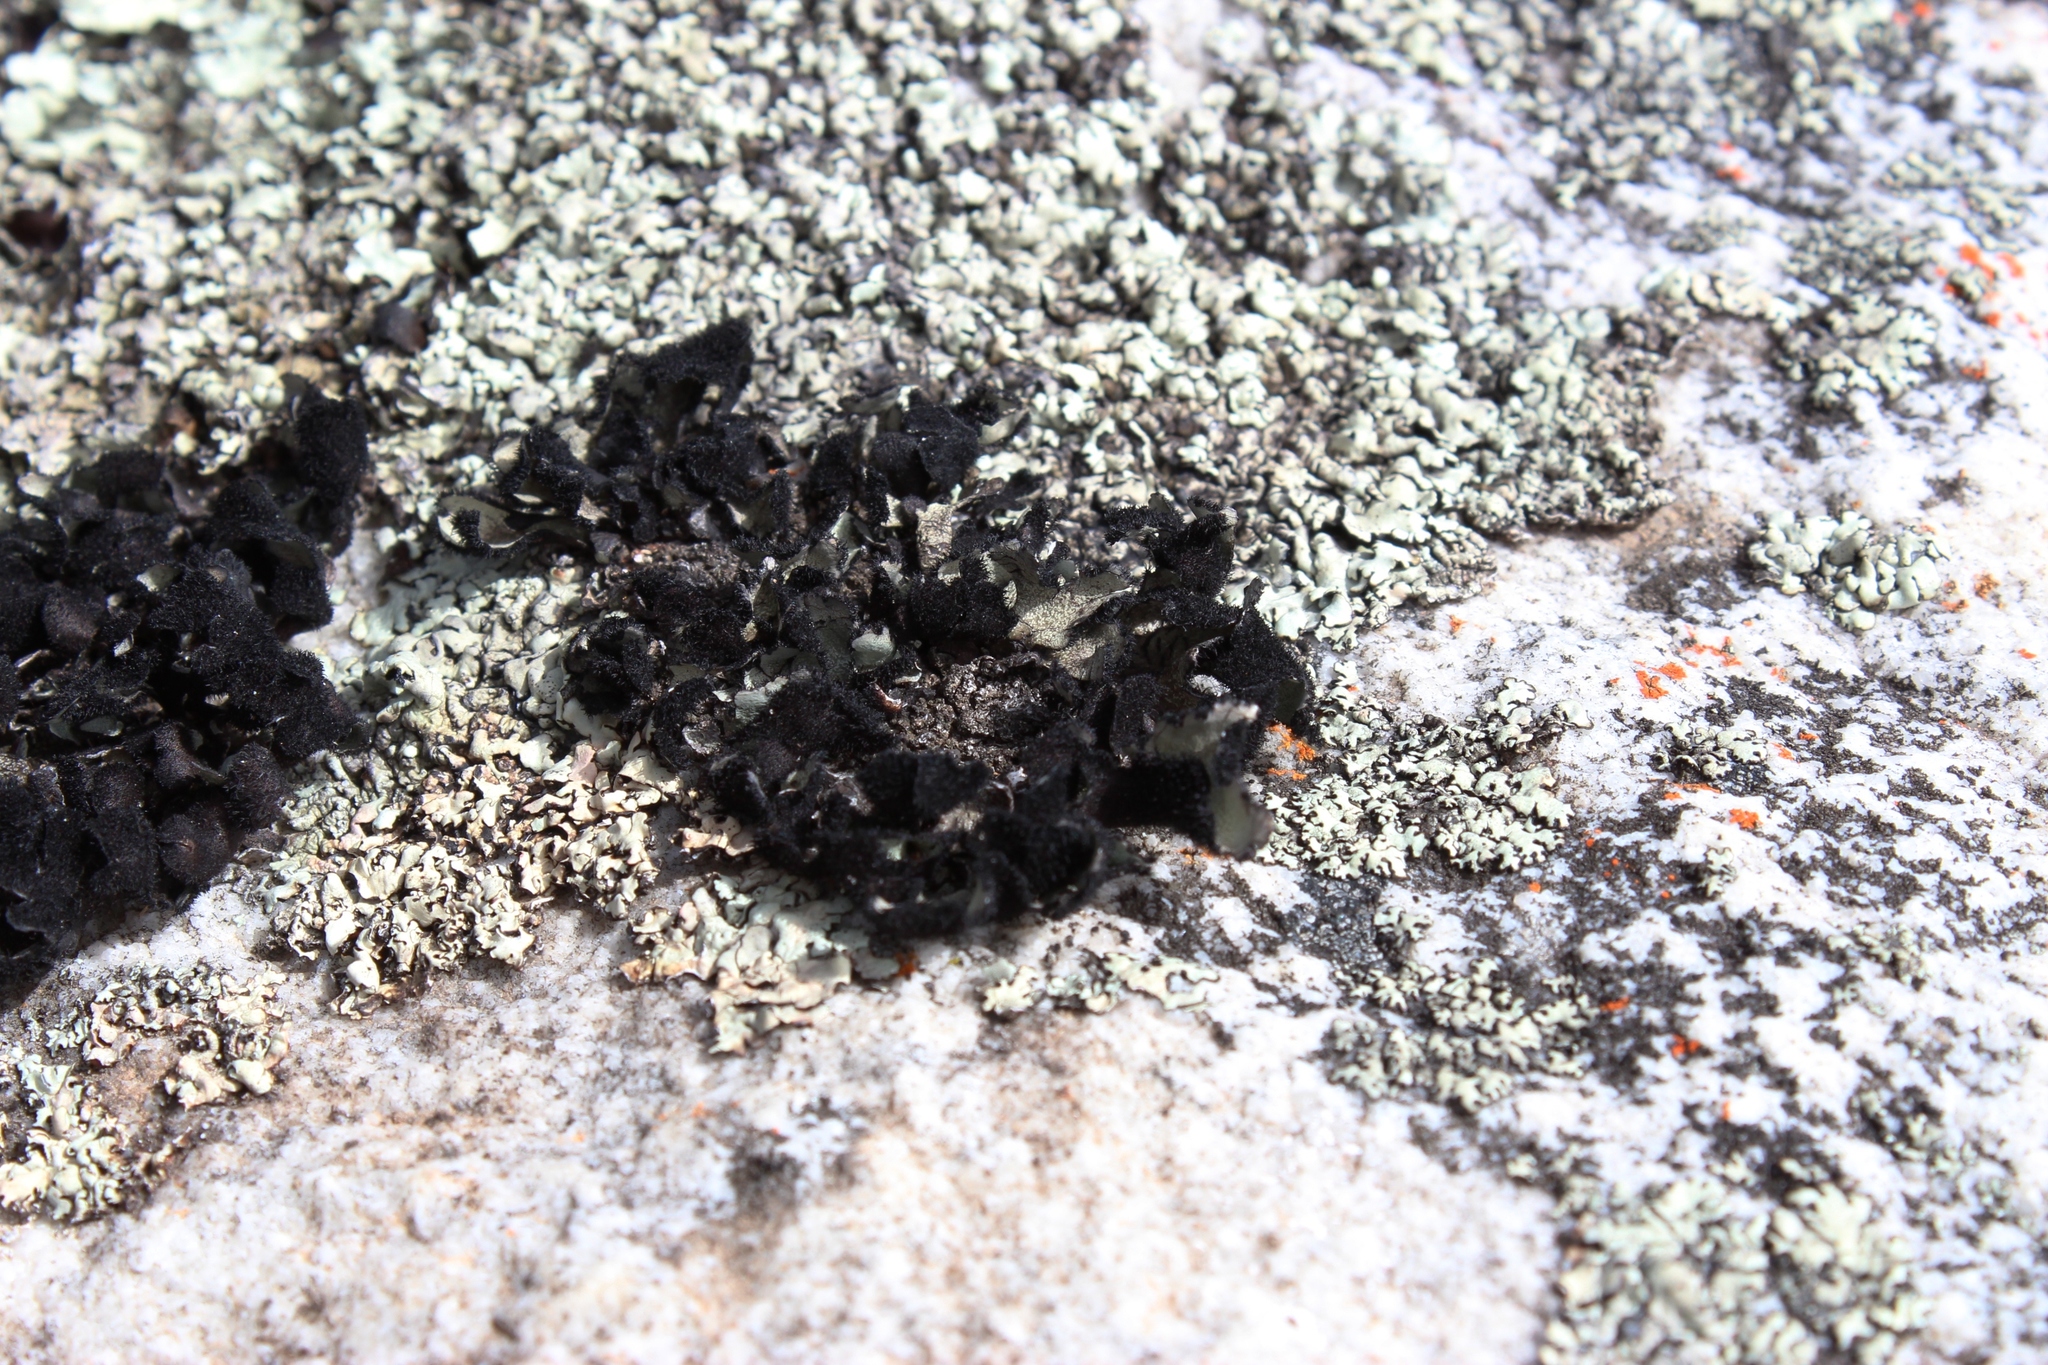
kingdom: Fungi
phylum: Ascomycota
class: Lecanoromycetes
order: Lecanorales
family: Parmeliaceae
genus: Xanthoparmelia
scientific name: Xanthoparmelia hottentotta
